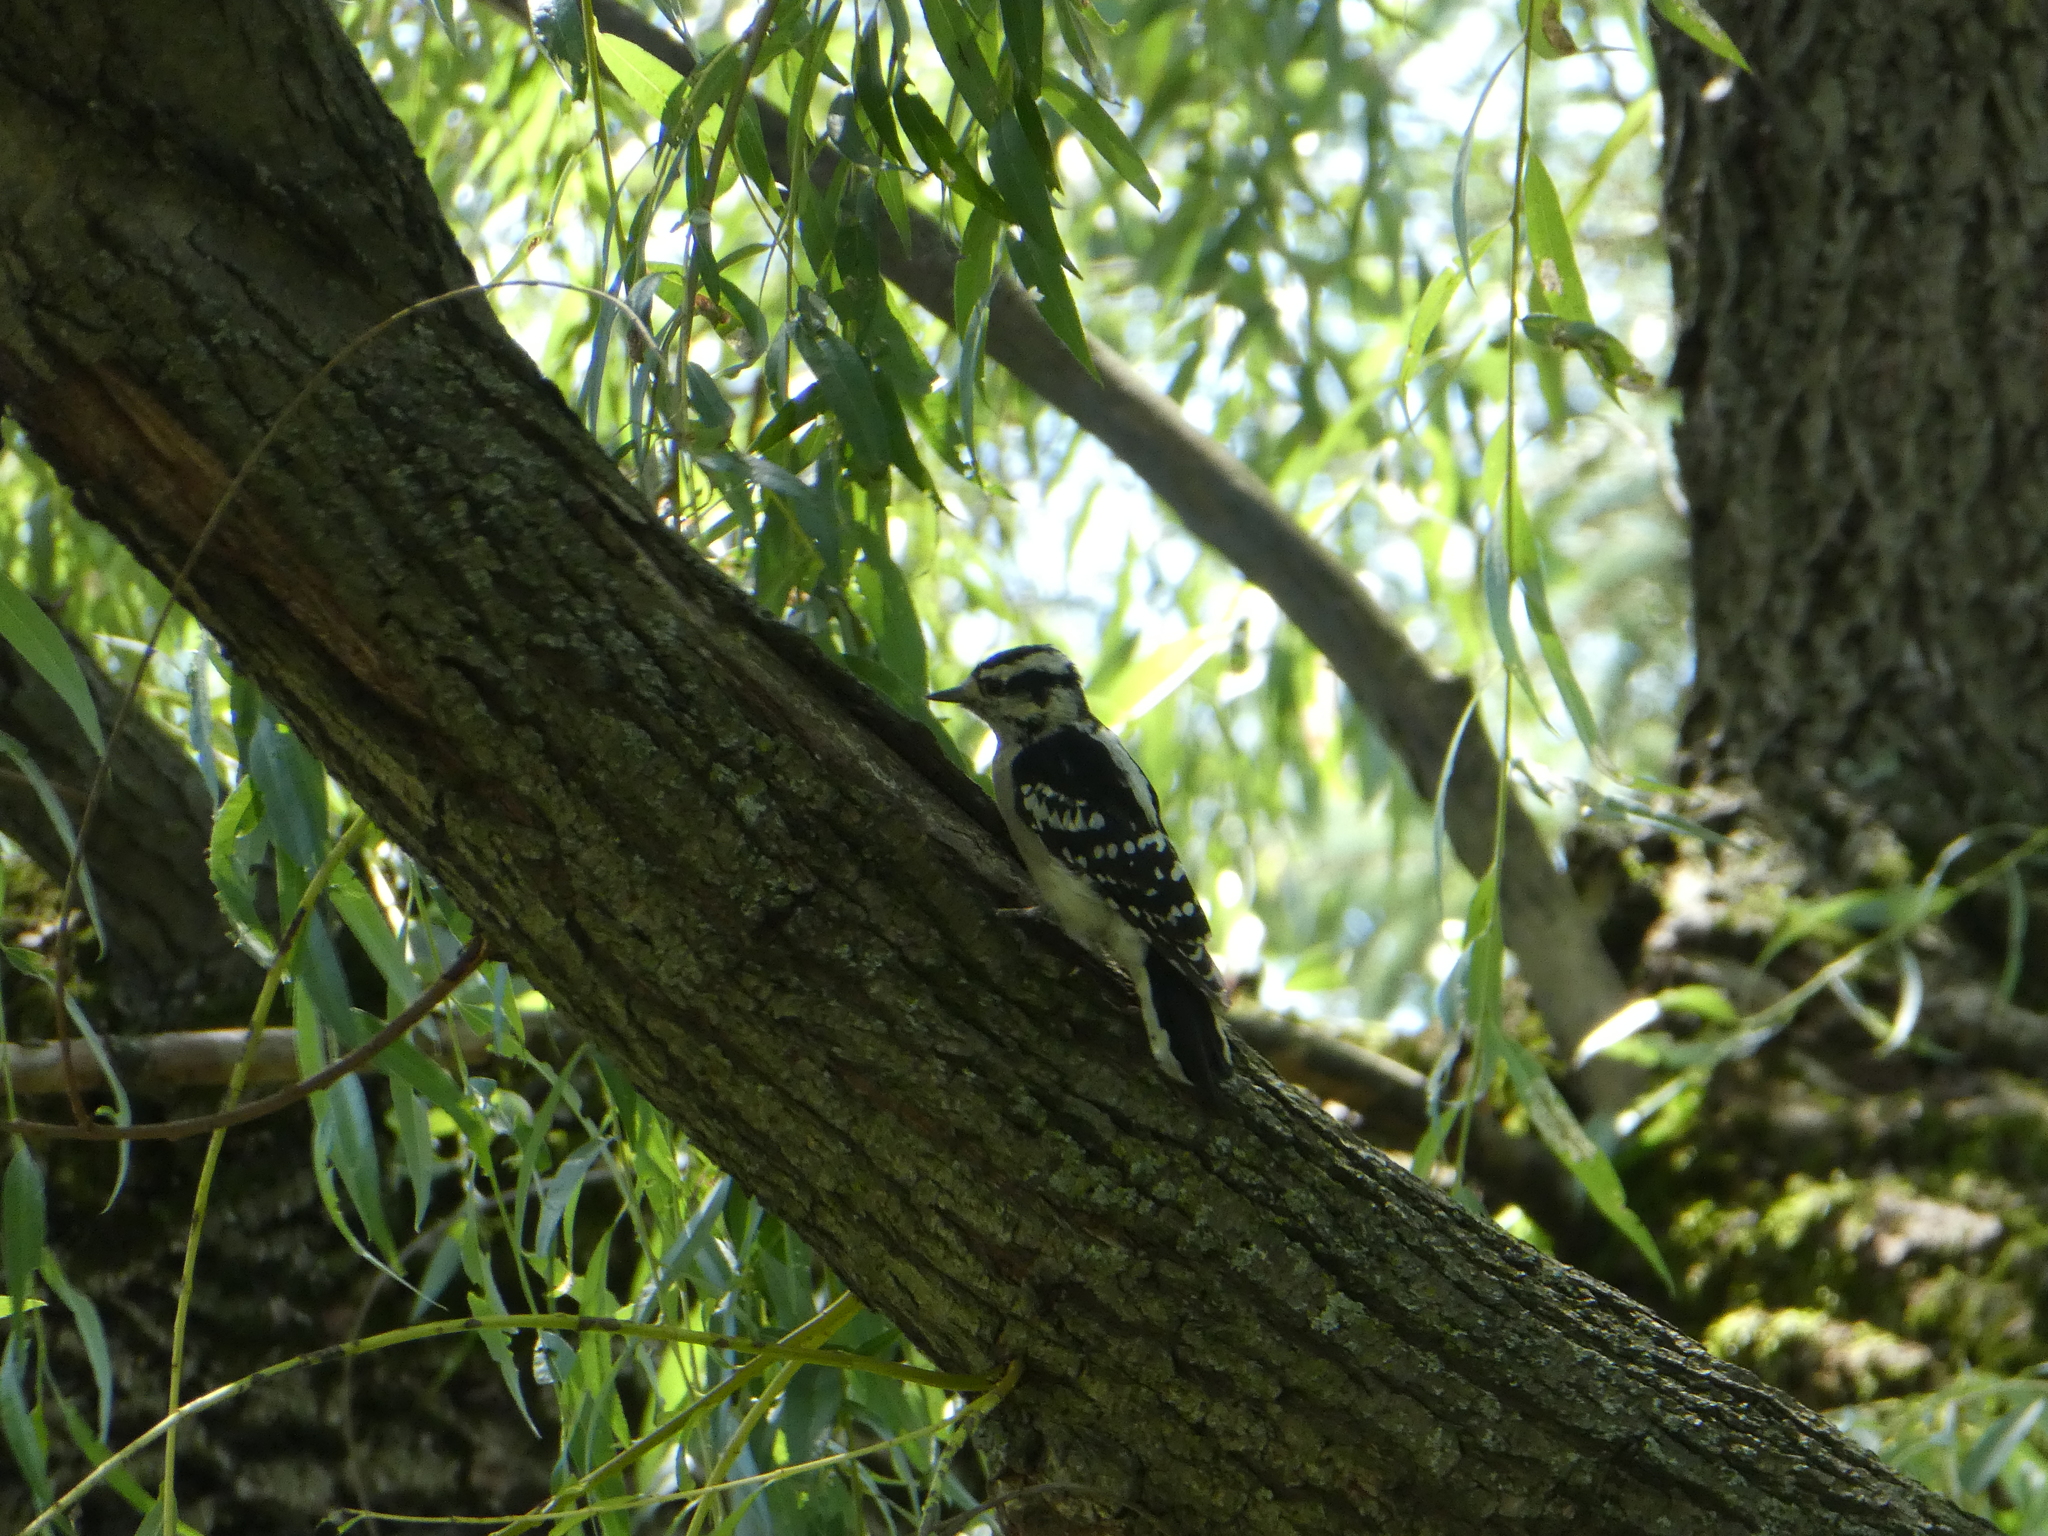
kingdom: Animalia
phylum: Chordata
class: Aves
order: Piciformes
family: Picidae
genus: Dryobates
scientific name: Dryobates pubescens
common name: Downy woodpecker
